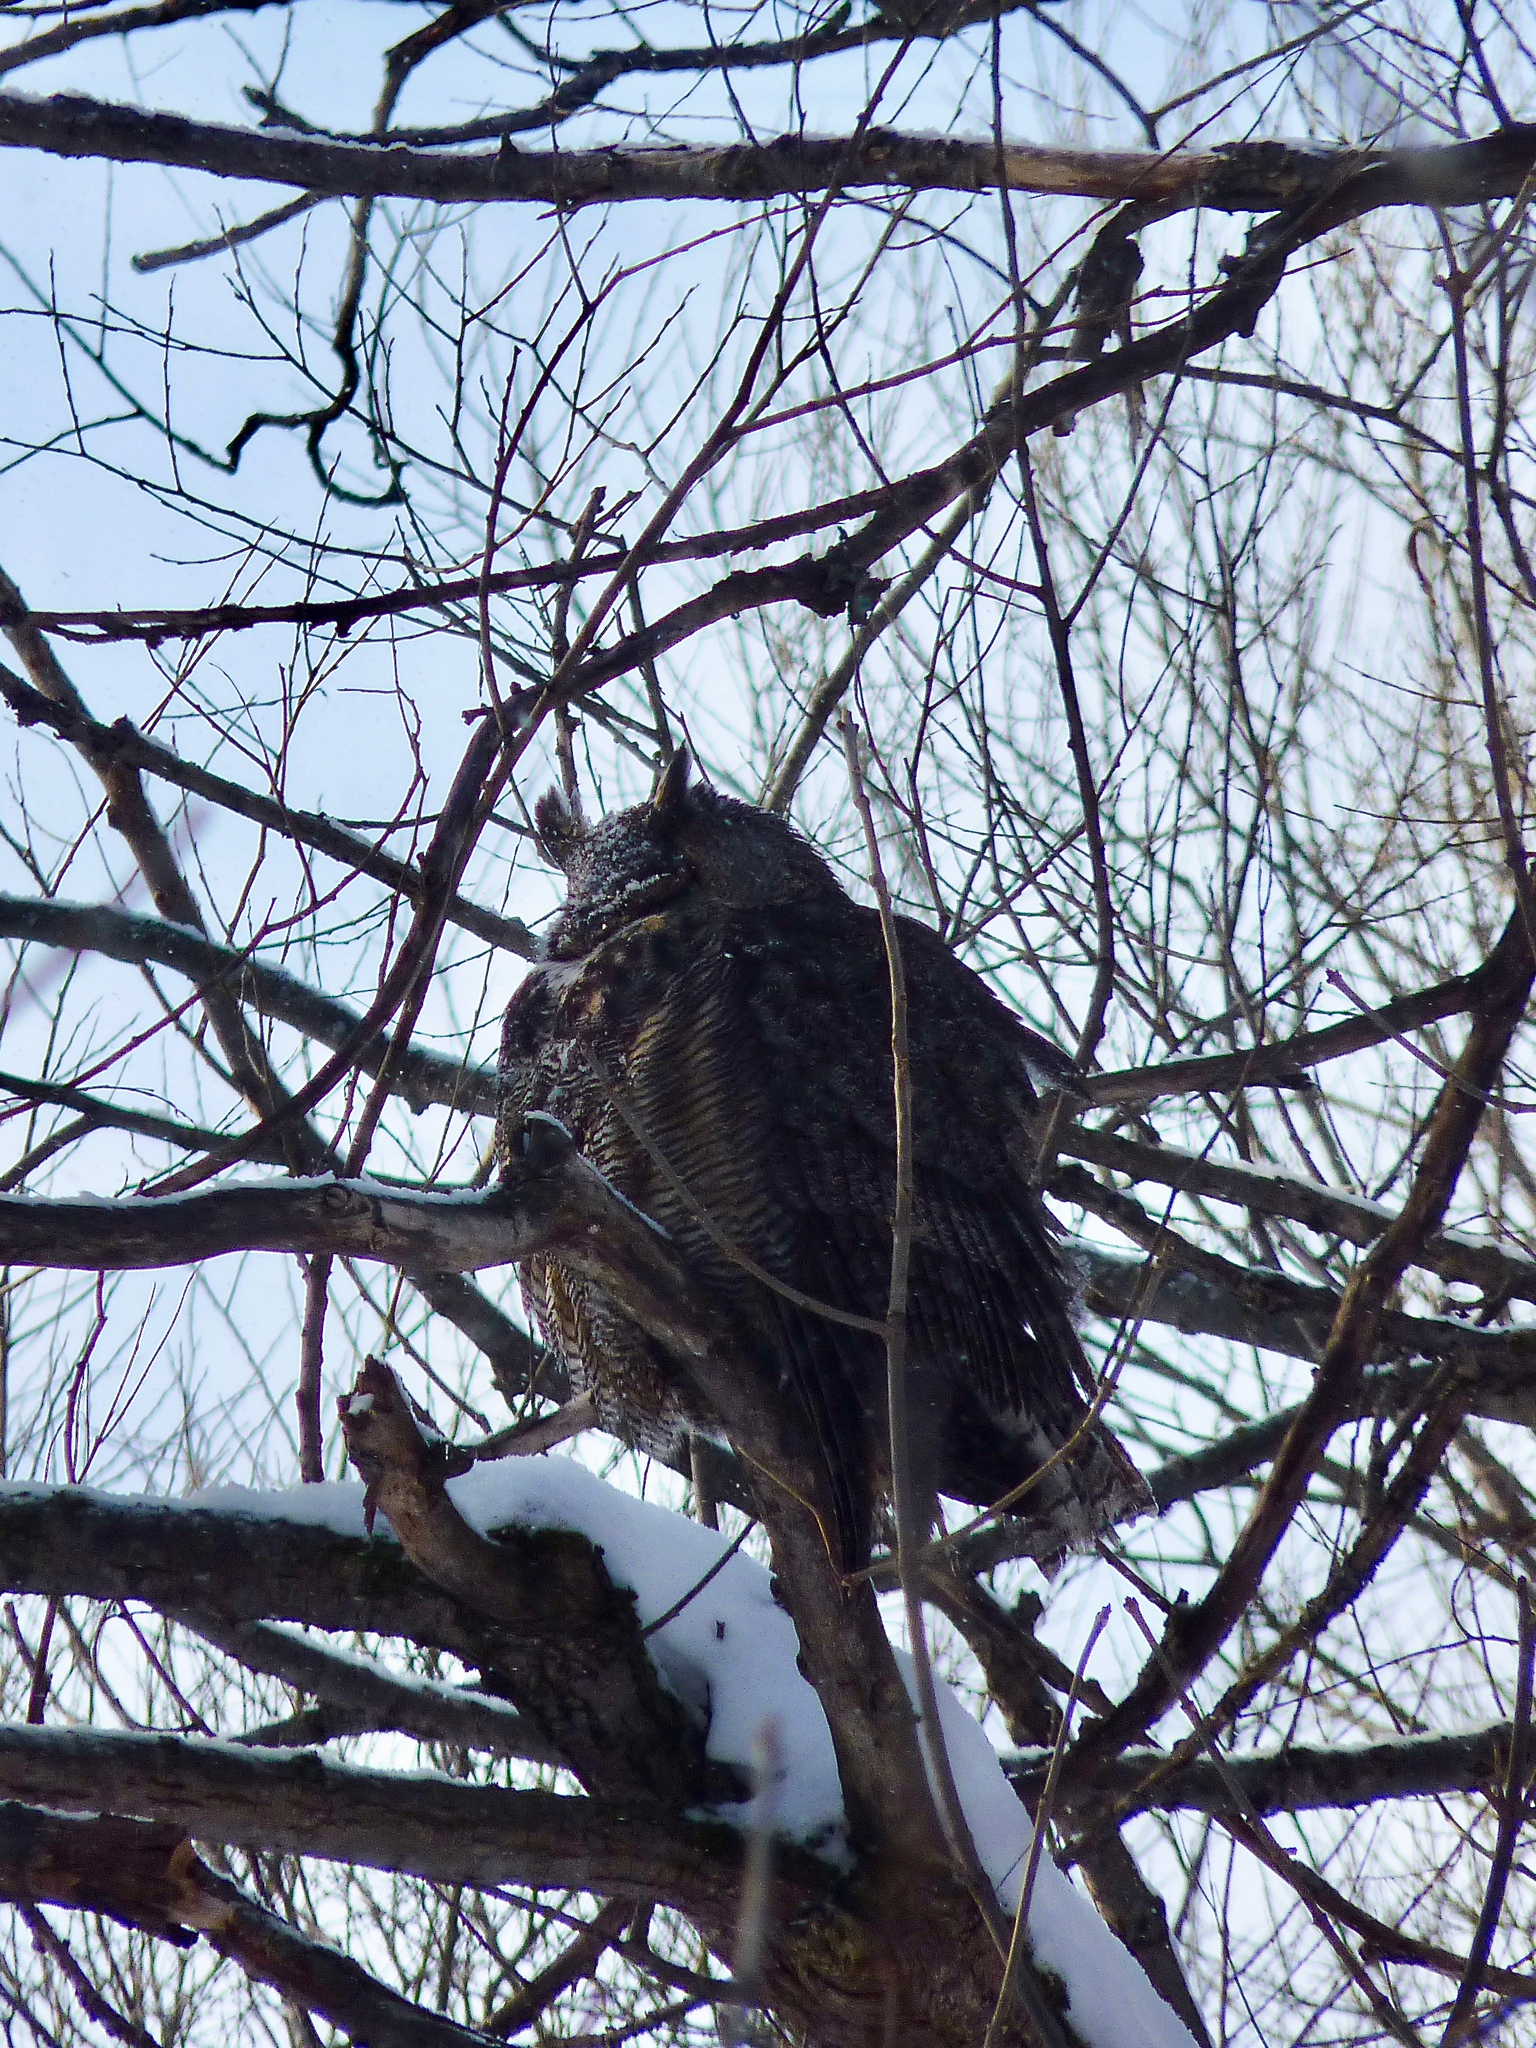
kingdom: Animalia
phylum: Chordata
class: Aves
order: Strigiformes
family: Strigidae
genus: Bubo
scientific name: Bubo virginianus
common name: Great horned owl
